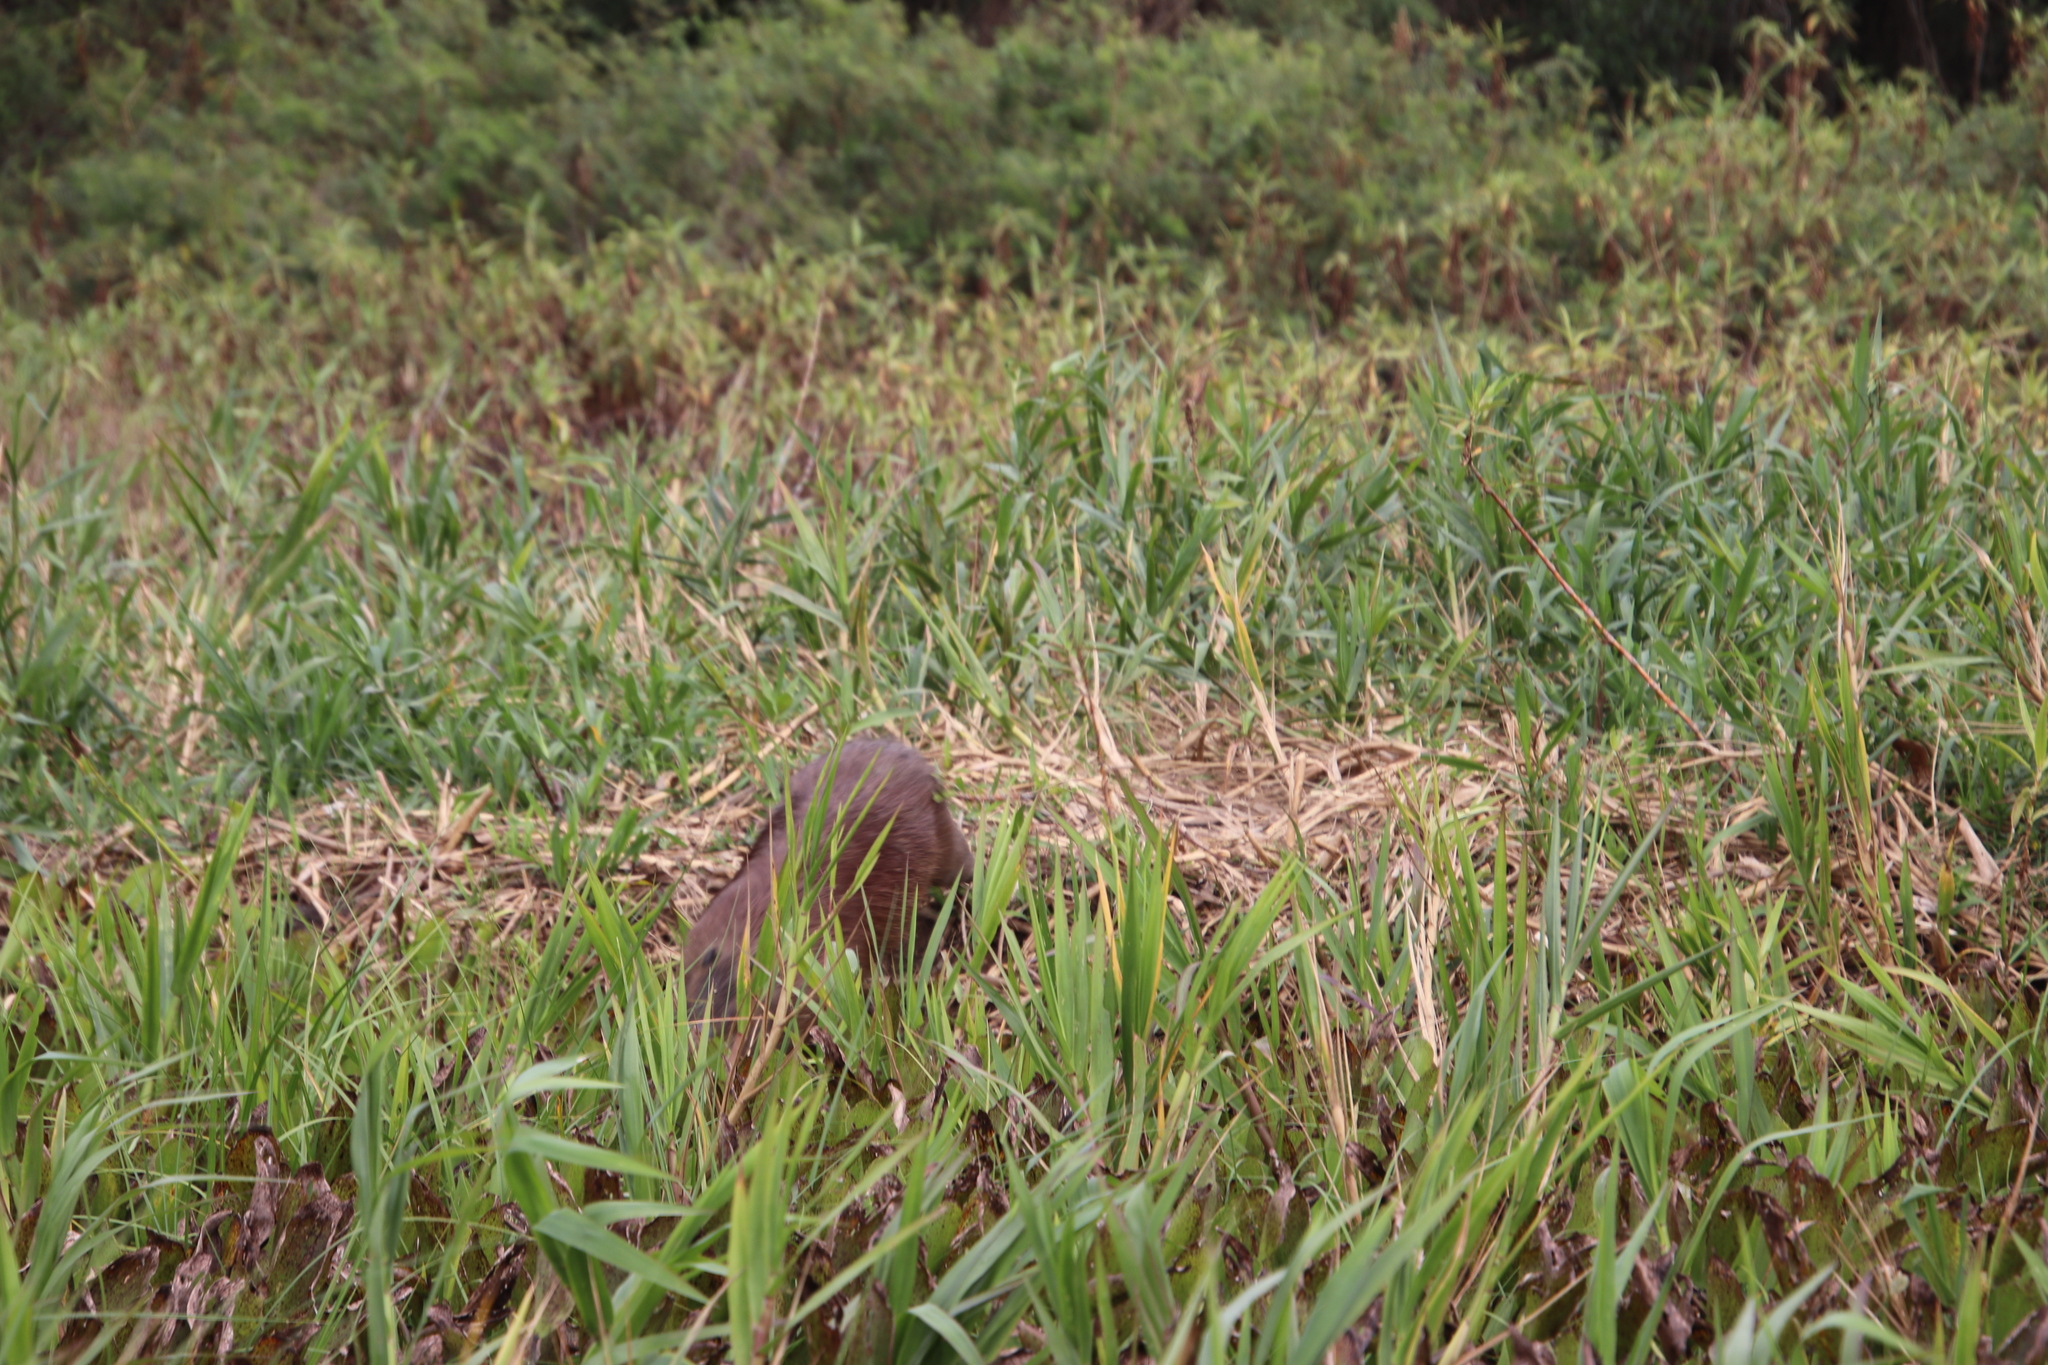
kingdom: Animalia
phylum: Chordata
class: Mammalia
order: Rodentia
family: Caviidae
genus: Hydrochoerus
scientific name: Hydrochoerus hydrochaeris
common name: Capybara
